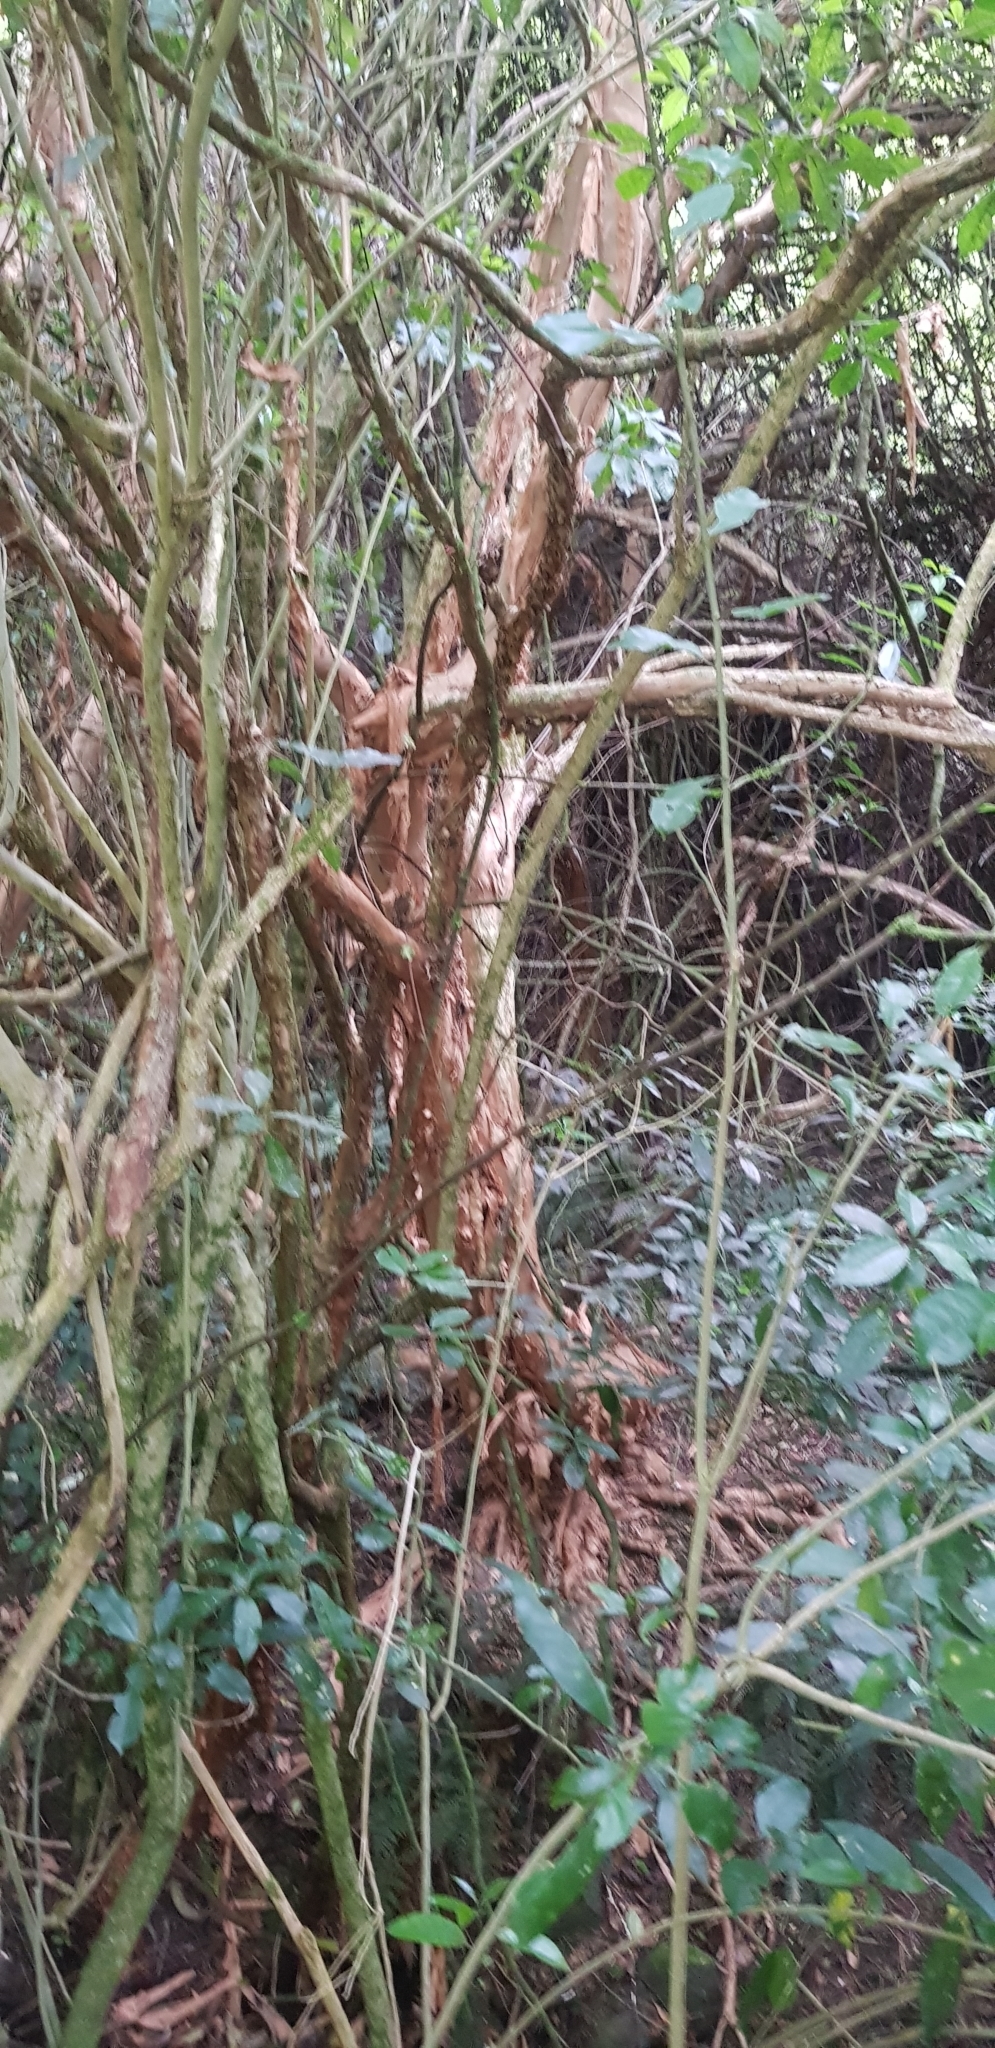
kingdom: Plantae
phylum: Tracheophyta
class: Magnoliopsida
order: Myrtales
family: Onagraceae
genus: Fuchsia
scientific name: Fuchsia excorticata
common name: Tree fuchsia
